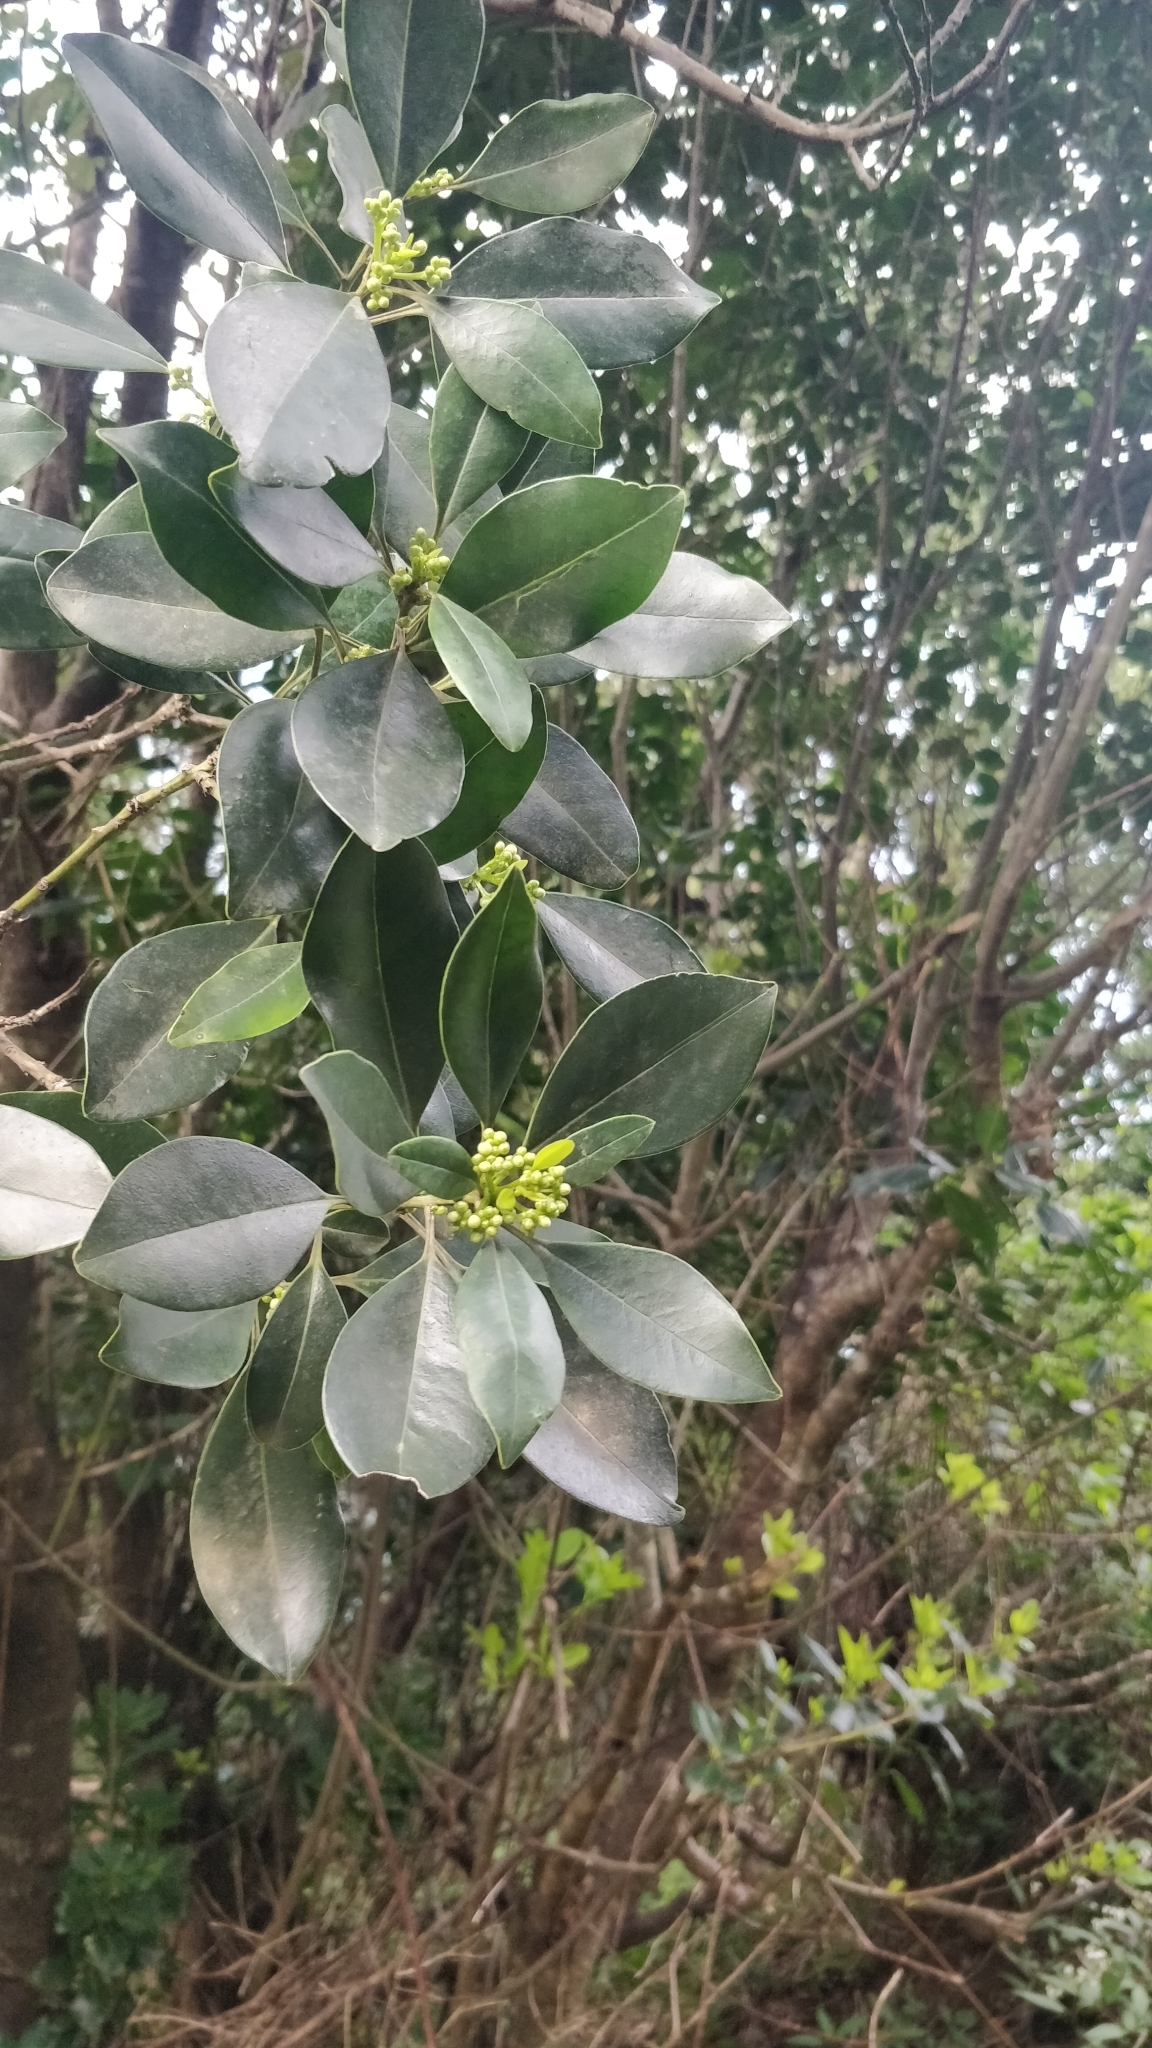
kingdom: Plantae
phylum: Tracheophyta
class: Magnoliopsida
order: Aquifoliales
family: Aquifoliaceae
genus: Ilex
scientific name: Ilex canariensis
